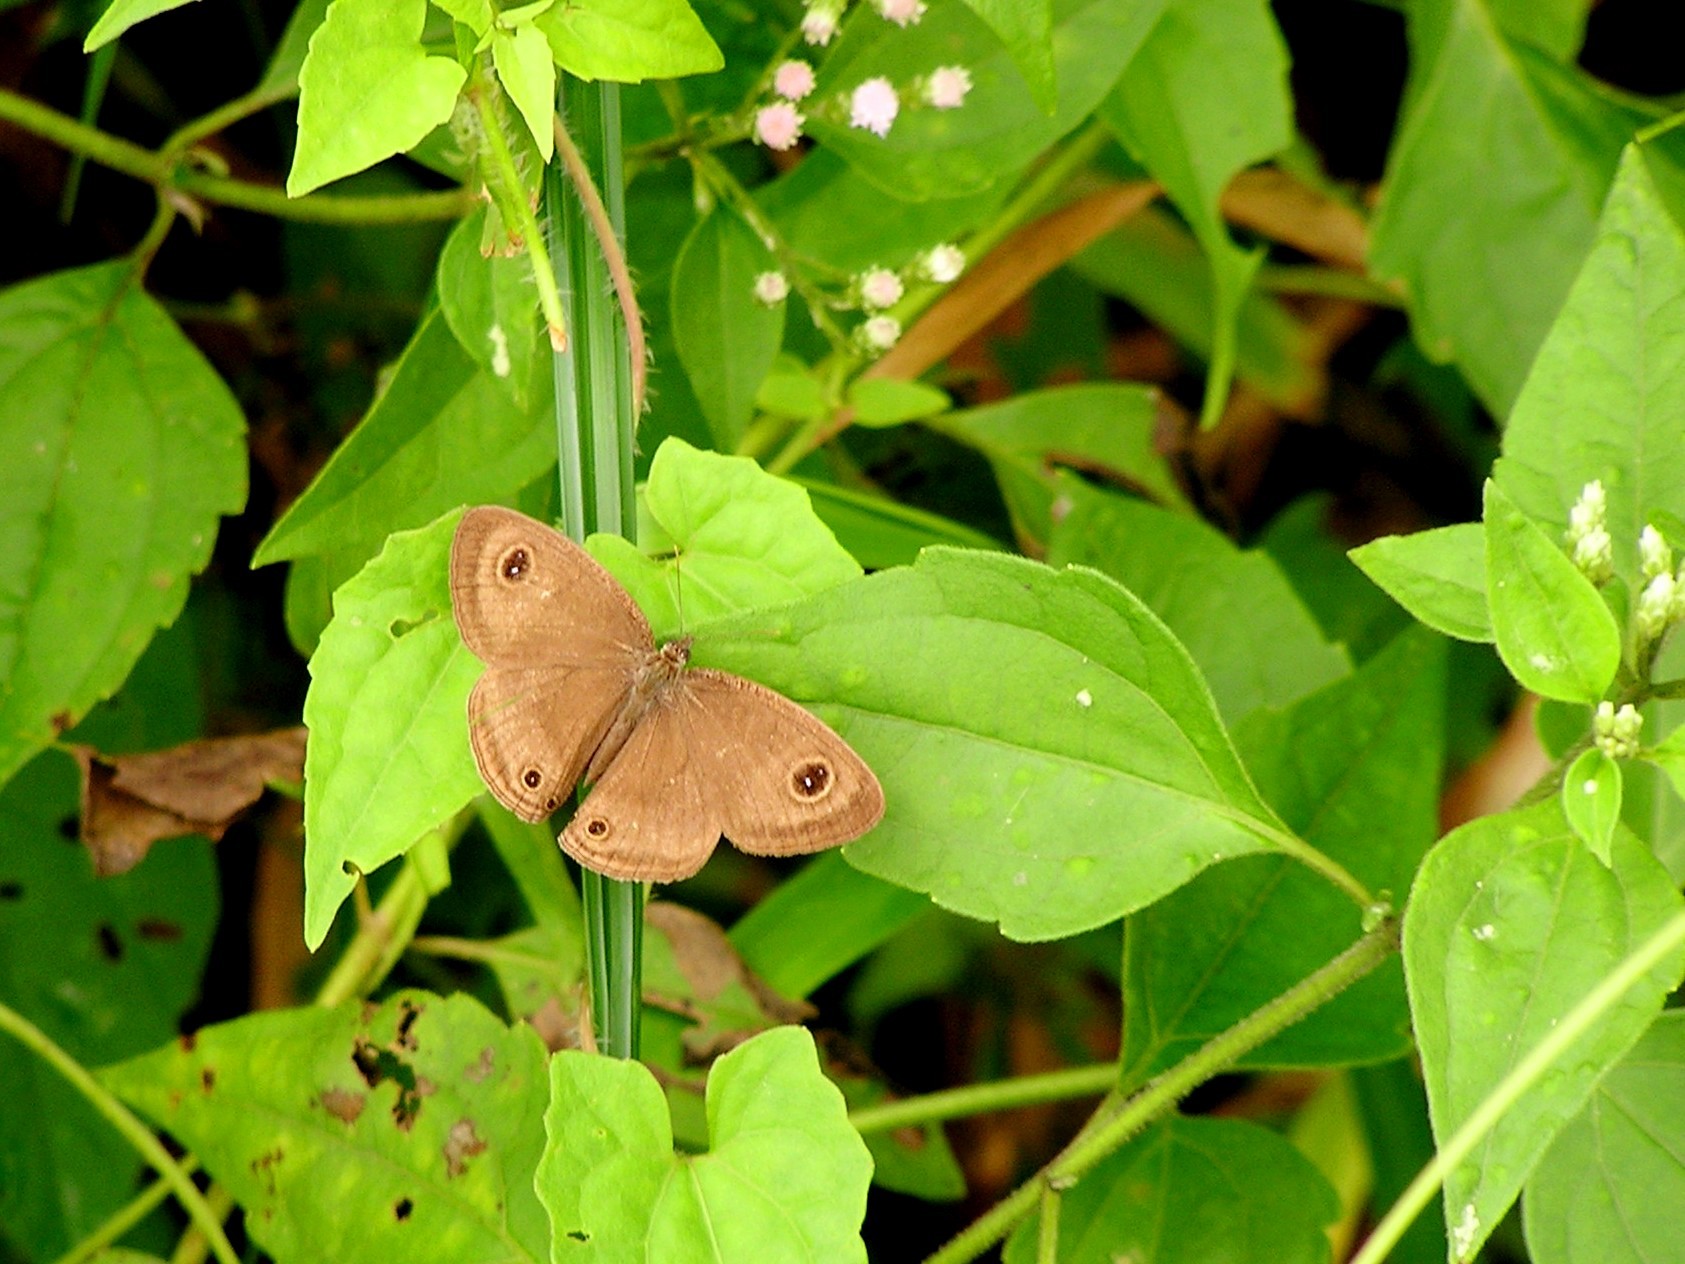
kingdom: Animalia
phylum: Arthropoda
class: Insecta
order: Lepidoptera
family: Nymphalidae
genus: Ypthima
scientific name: Ypthima pandocus
